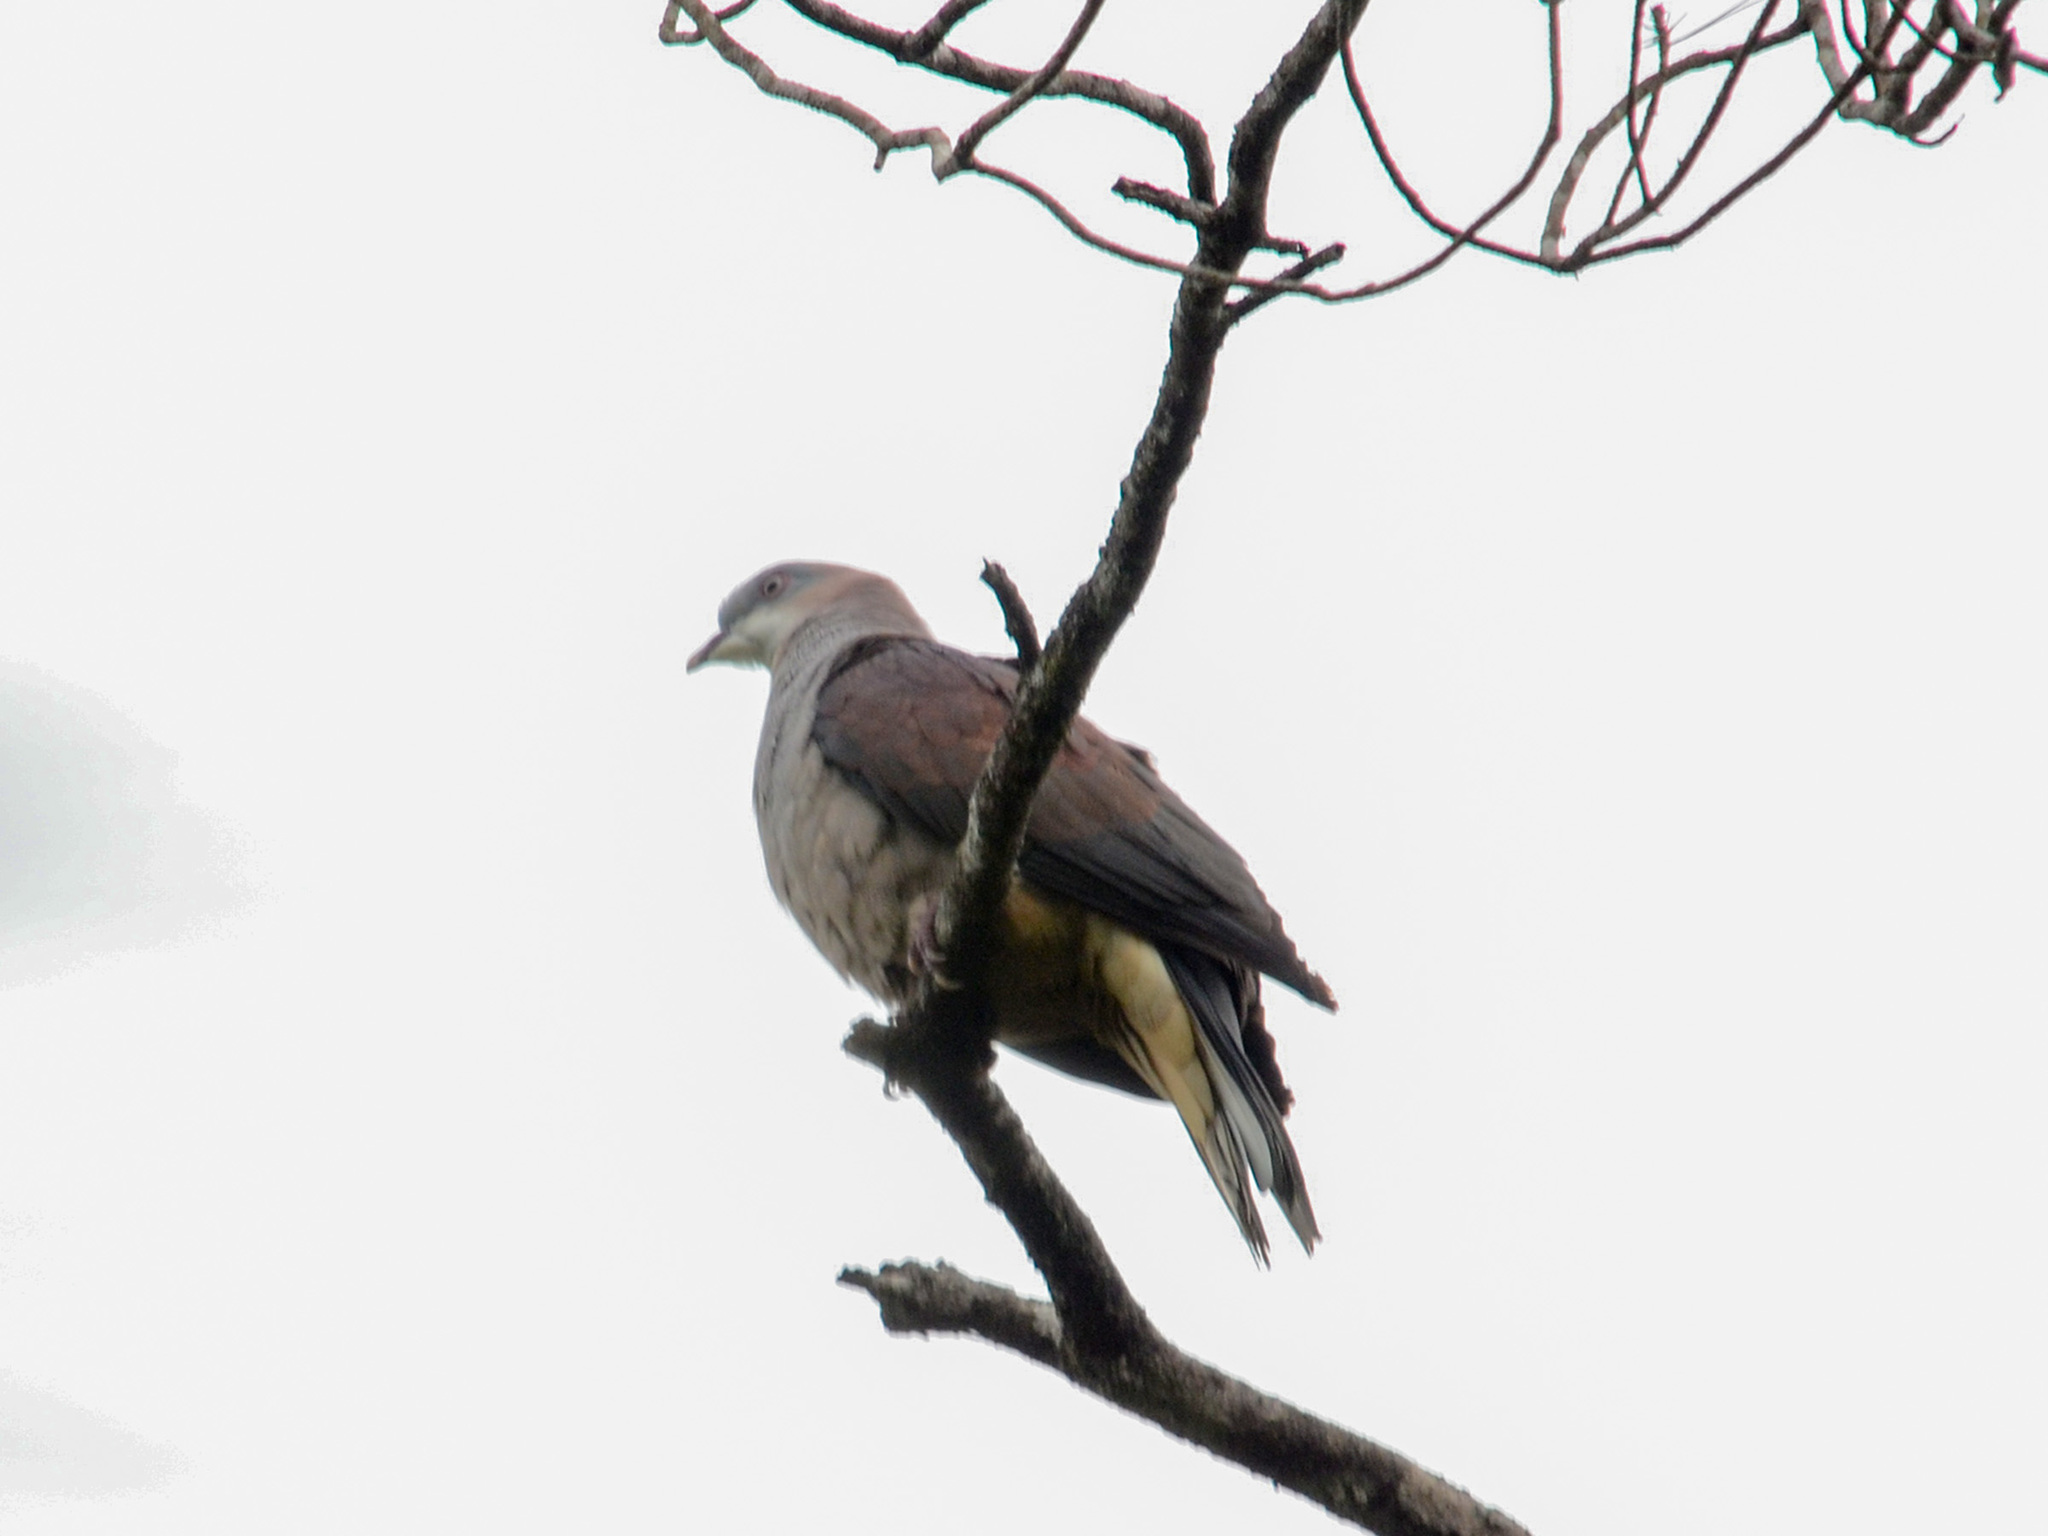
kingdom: Animalia
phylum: Chordata
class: Aves
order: Columbiformes
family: Columbidae
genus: Ducula
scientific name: Ducula badia
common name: Mountain imperial pigeon
